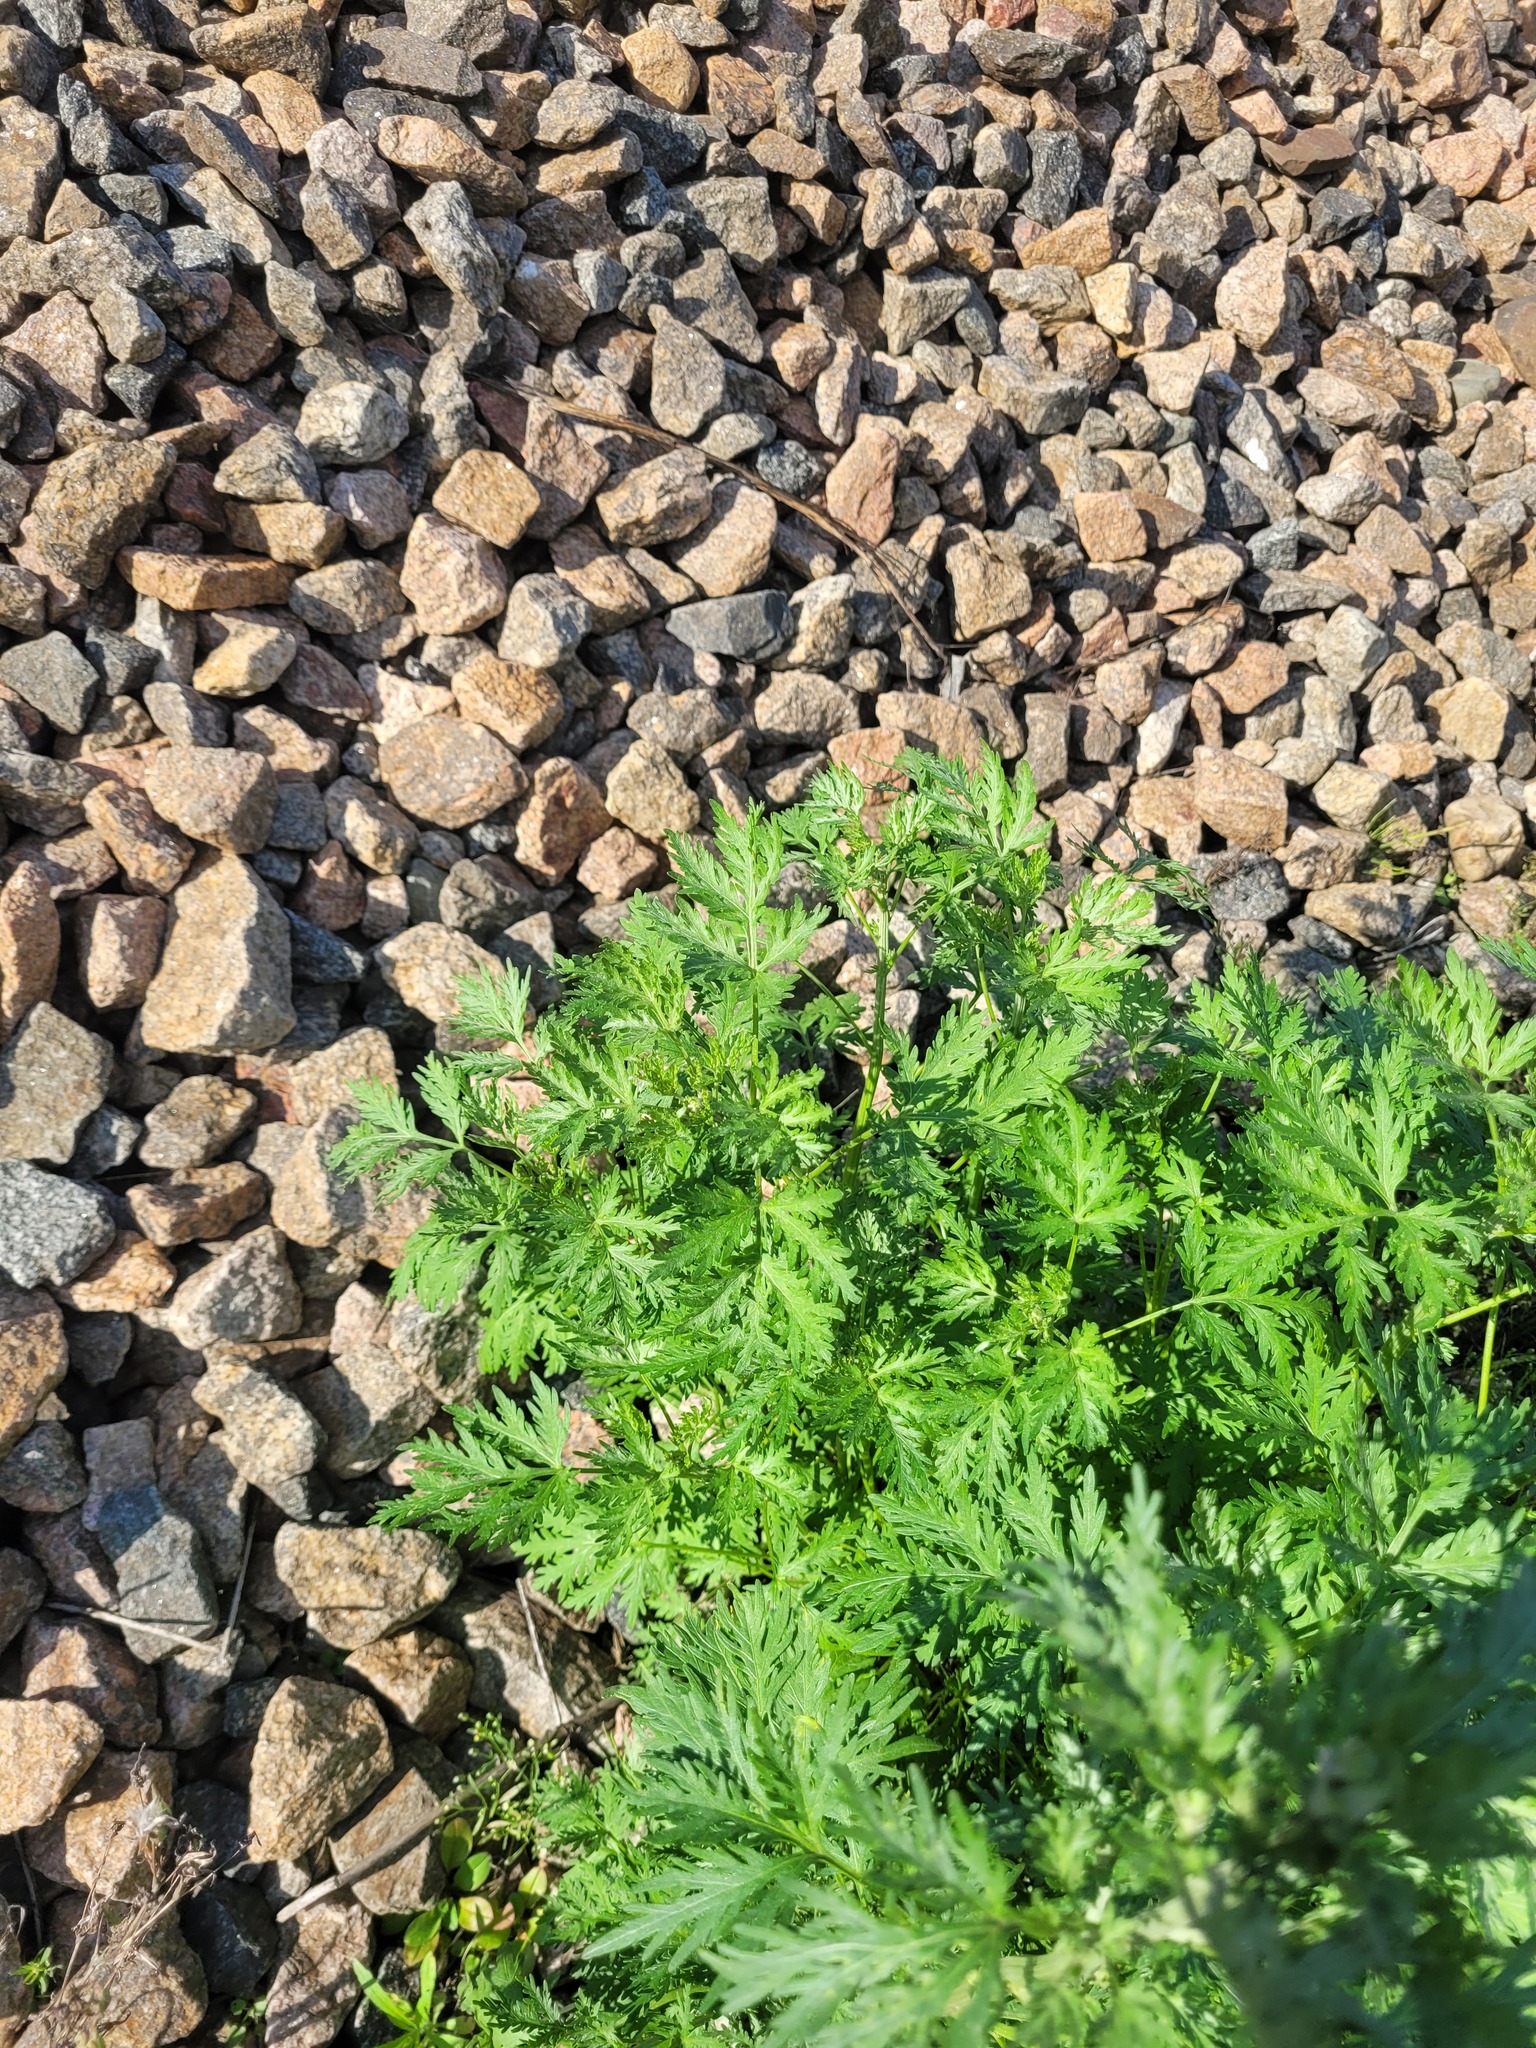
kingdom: Plantae
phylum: Tracheophyta
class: Magnoliopsida
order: Asterales
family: Asteraceae
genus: Artemisia
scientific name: Artemisia sieversiana
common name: Sieversian wormwood
